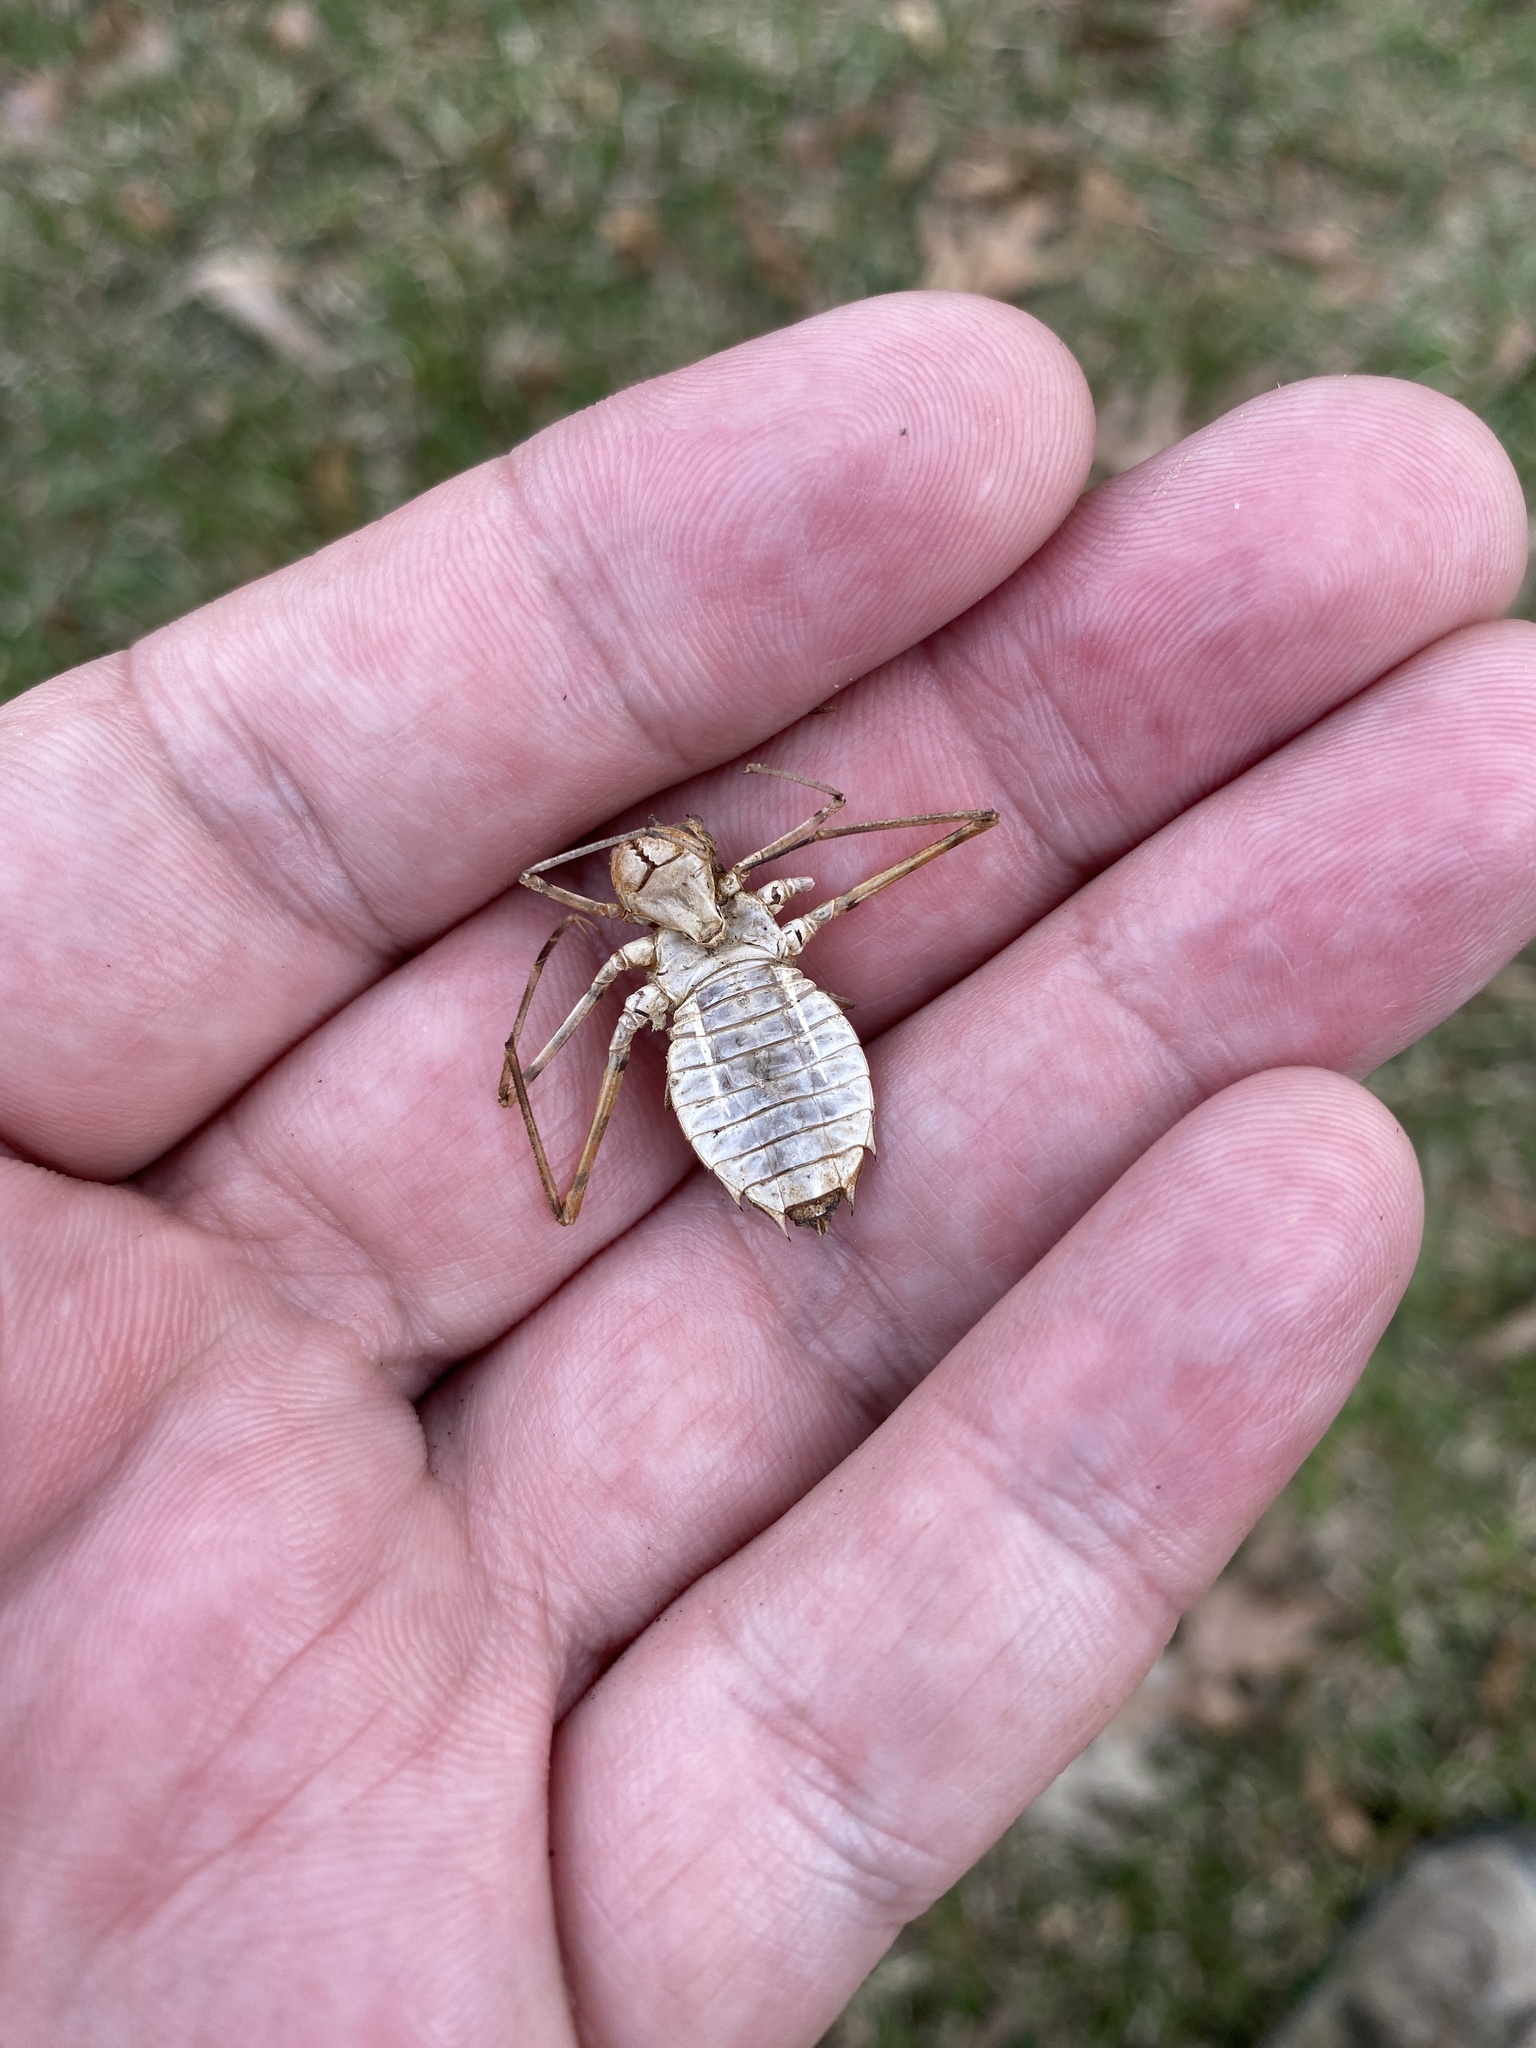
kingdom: Animalia
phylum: Arthropoda
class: Insecta
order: Odonata
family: Macromiidae
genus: Didymops
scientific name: Didymops transversa
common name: Stream cruiser
